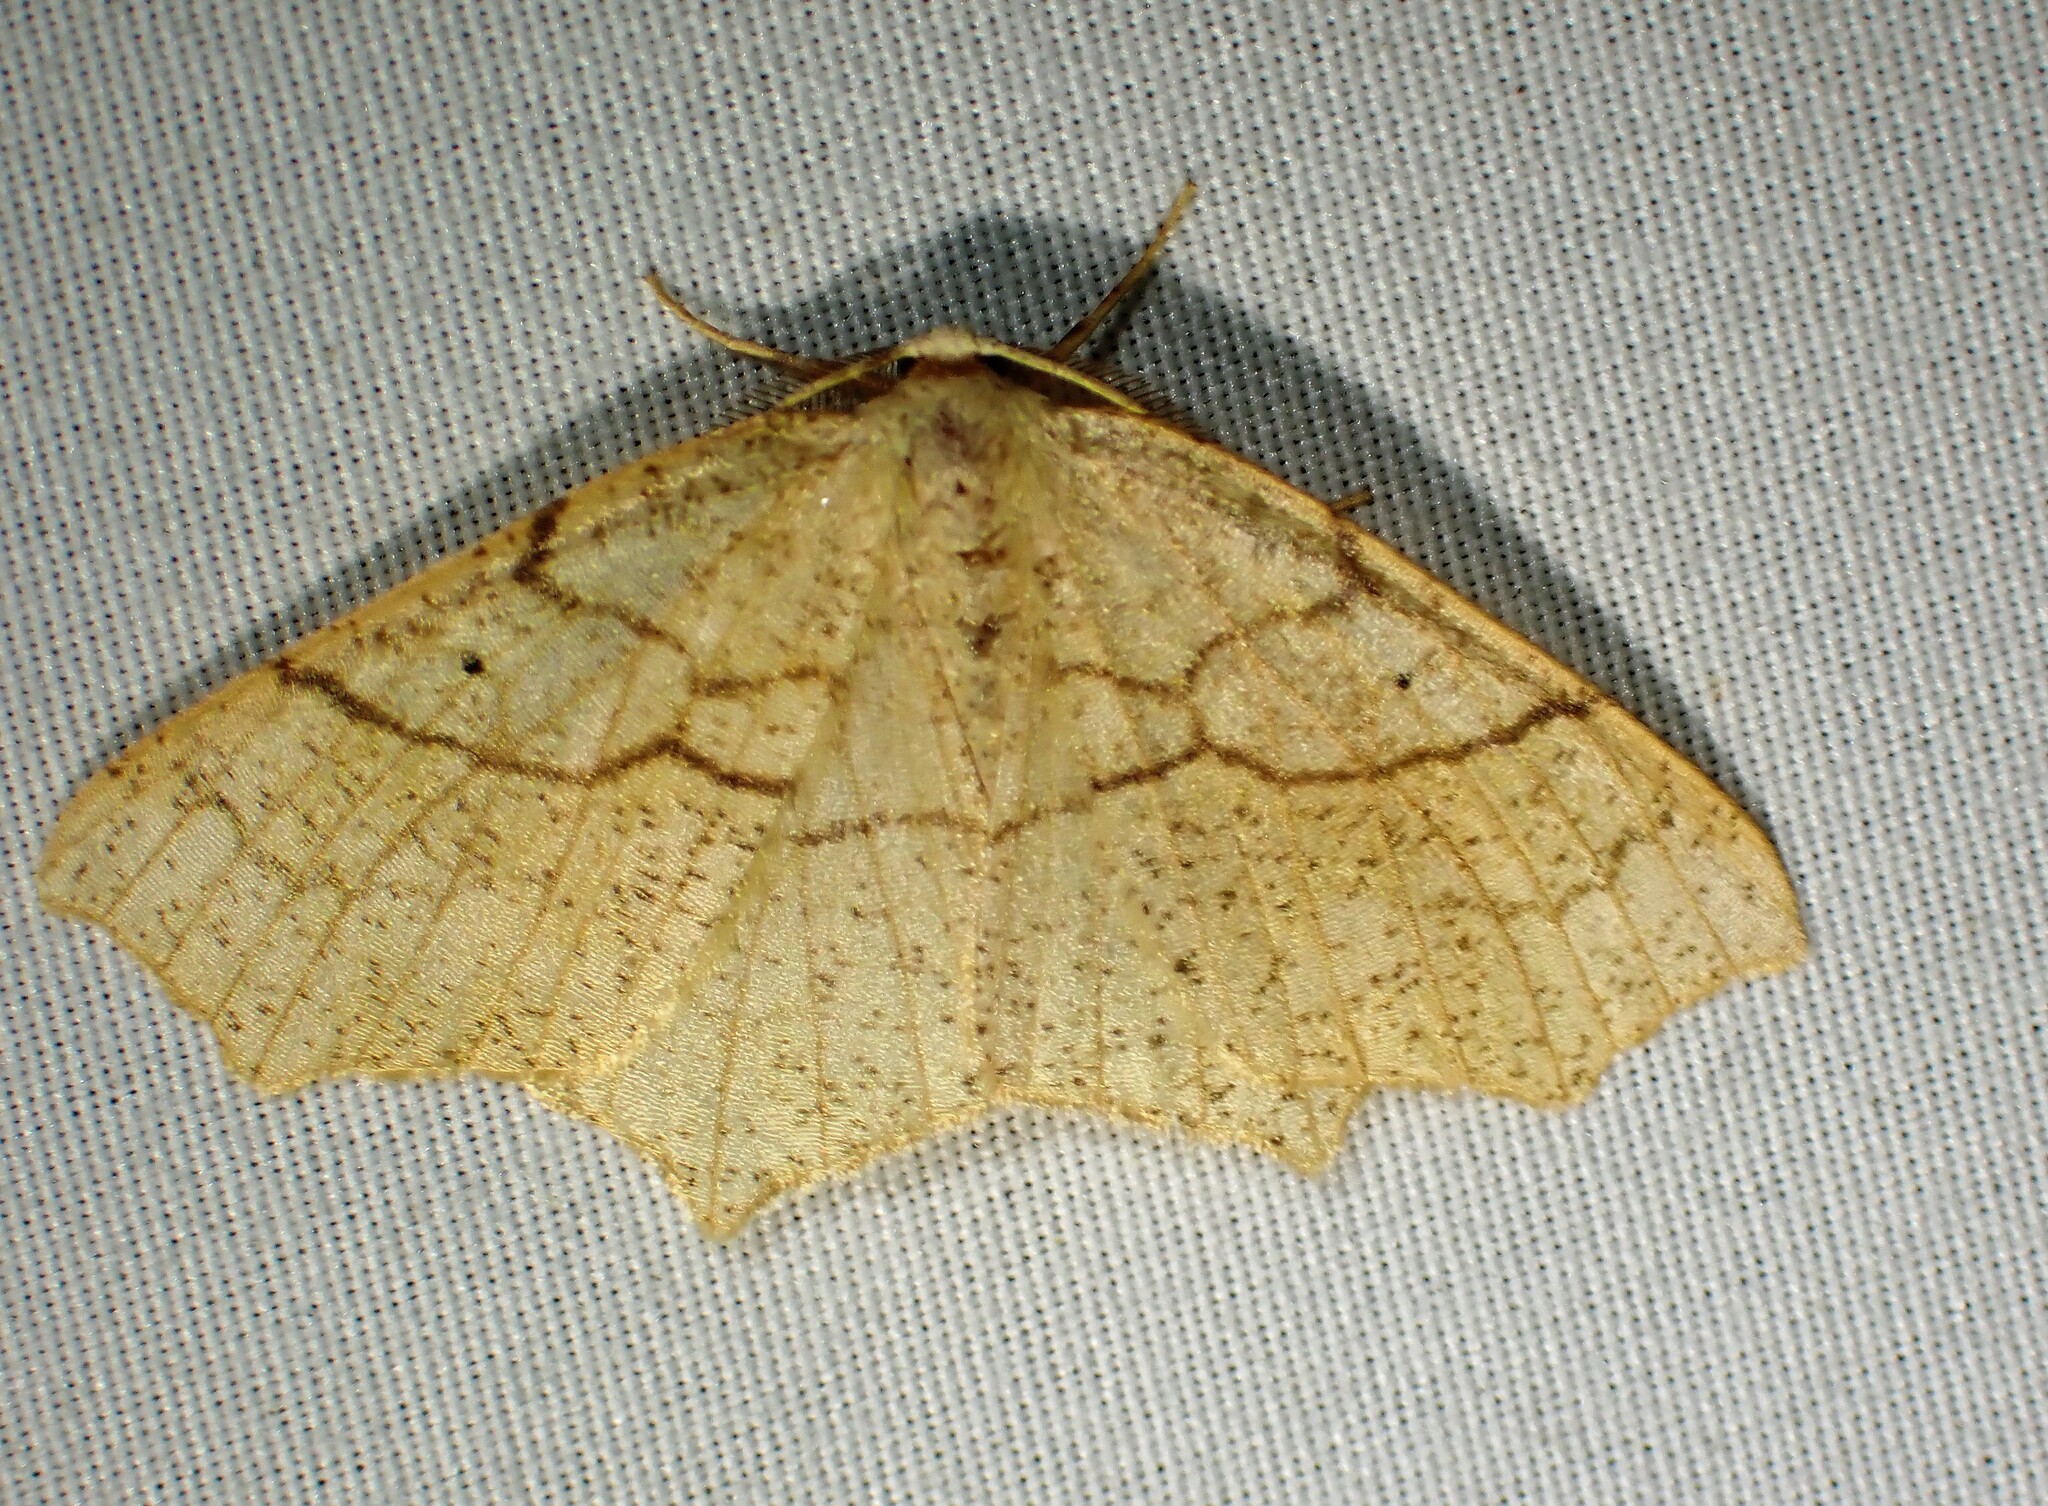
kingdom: Animalia
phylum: Arthropoda
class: Insecta
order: Lepidoptera
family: Geometridae
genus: Besma
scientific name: Besma quercivoraria
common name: Oak besma
